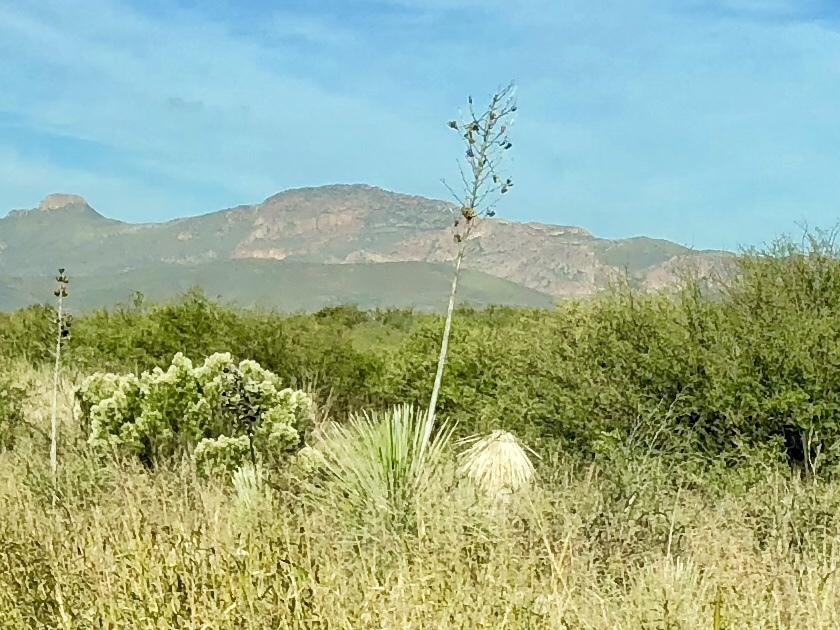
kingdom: Plantae
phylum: Tracheophyta
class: Liliopsida
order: Asparagales
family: Asparagaceae
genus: Yucca
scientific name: Yucca elata
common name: Palmella
